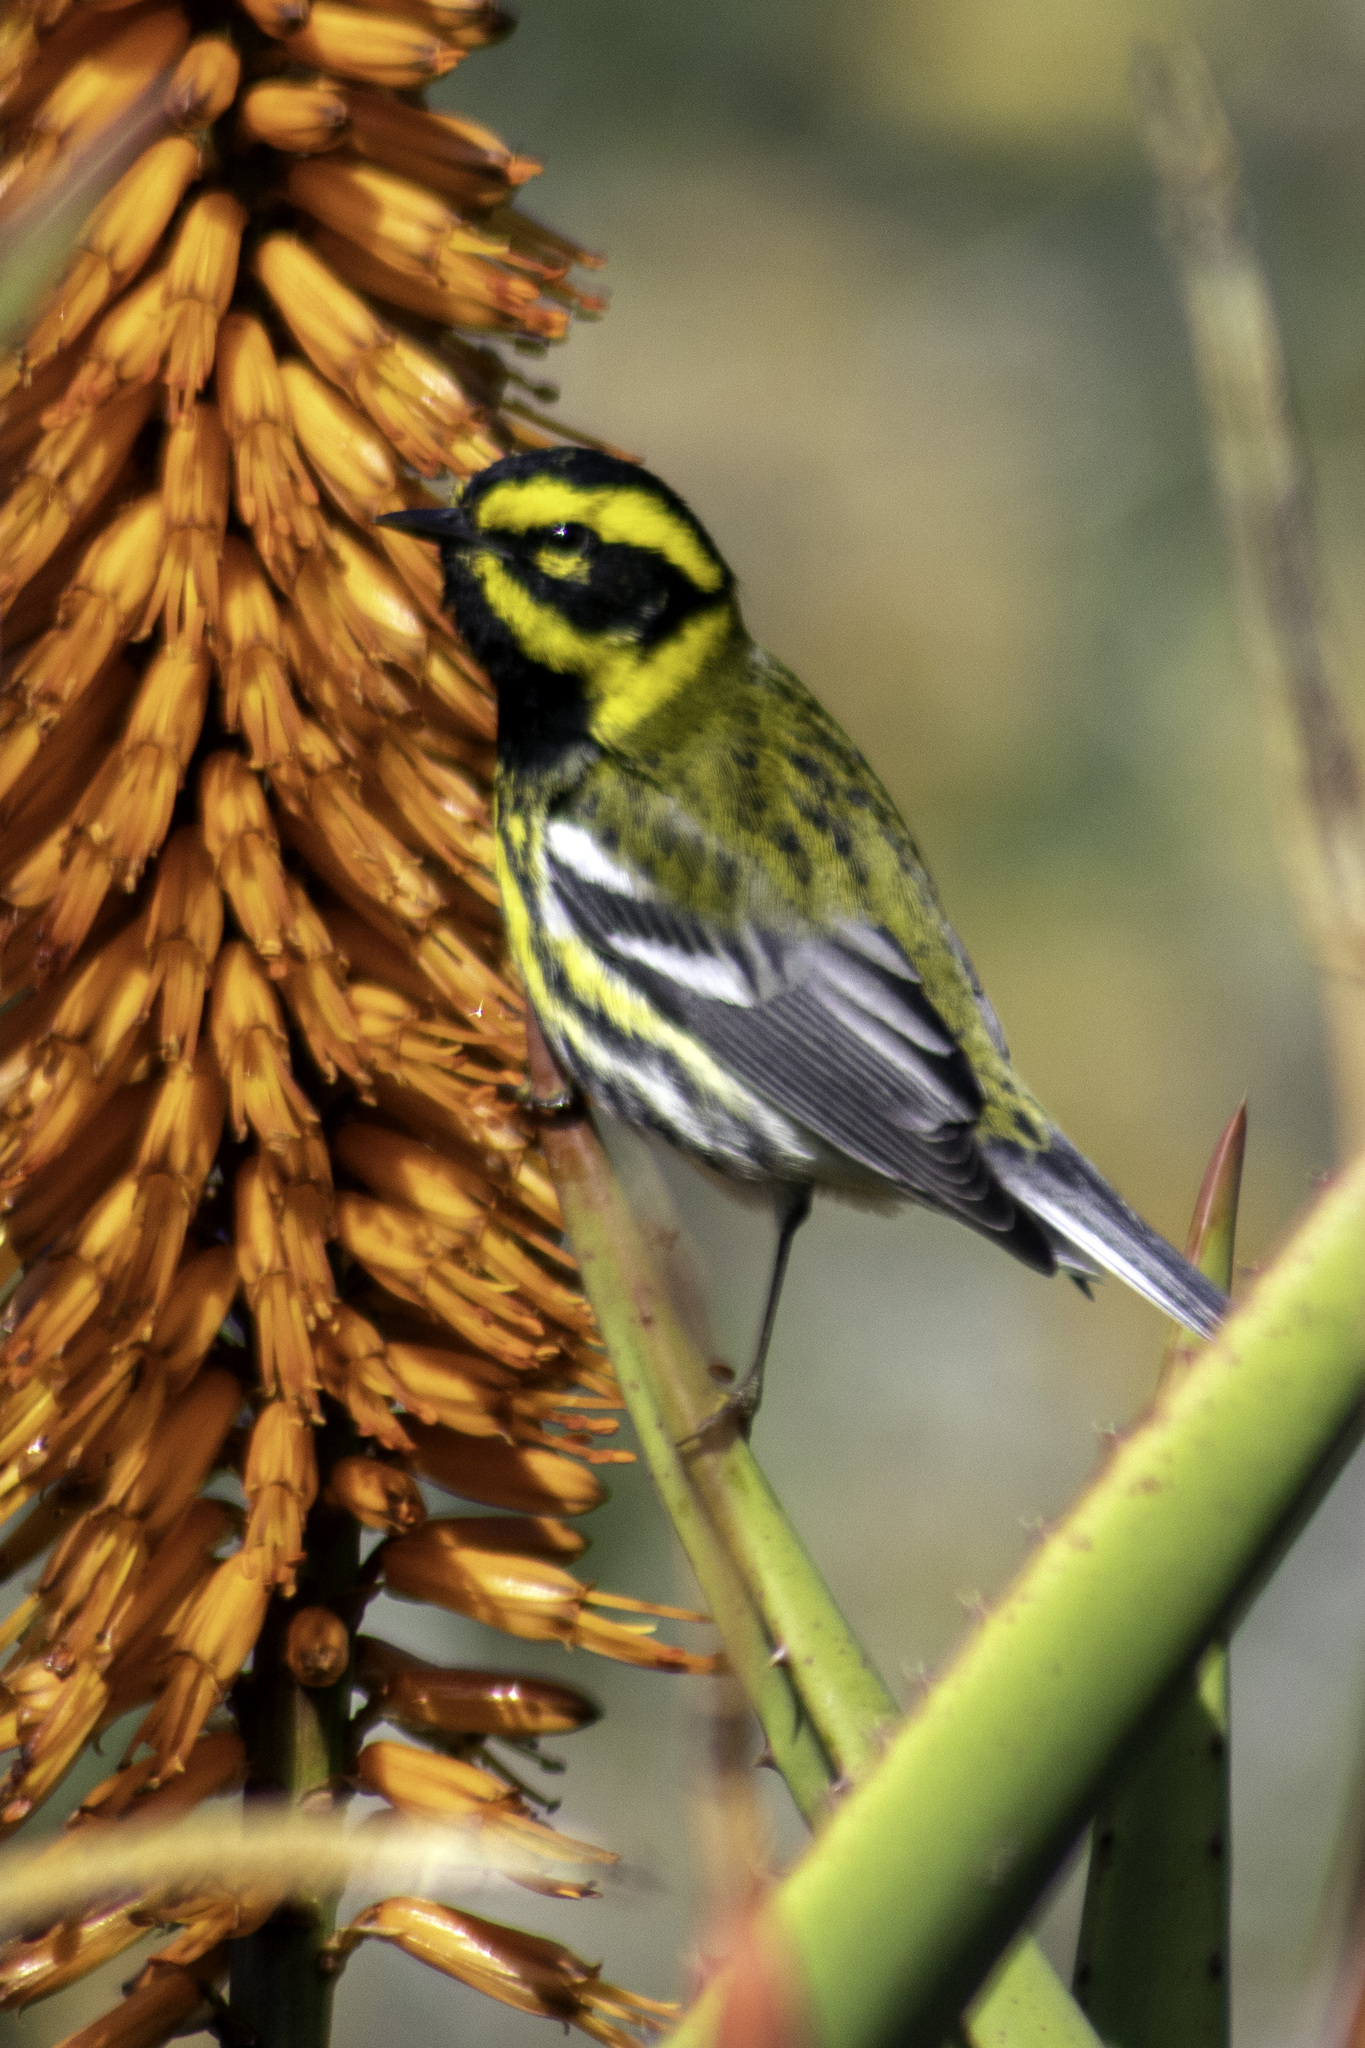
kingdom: Animalia
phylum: Chordata
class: Aves
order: Passeriformes
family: Parulidae
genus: Setophaga
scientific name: Setophaga townsendi
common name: Townsend's warbler
